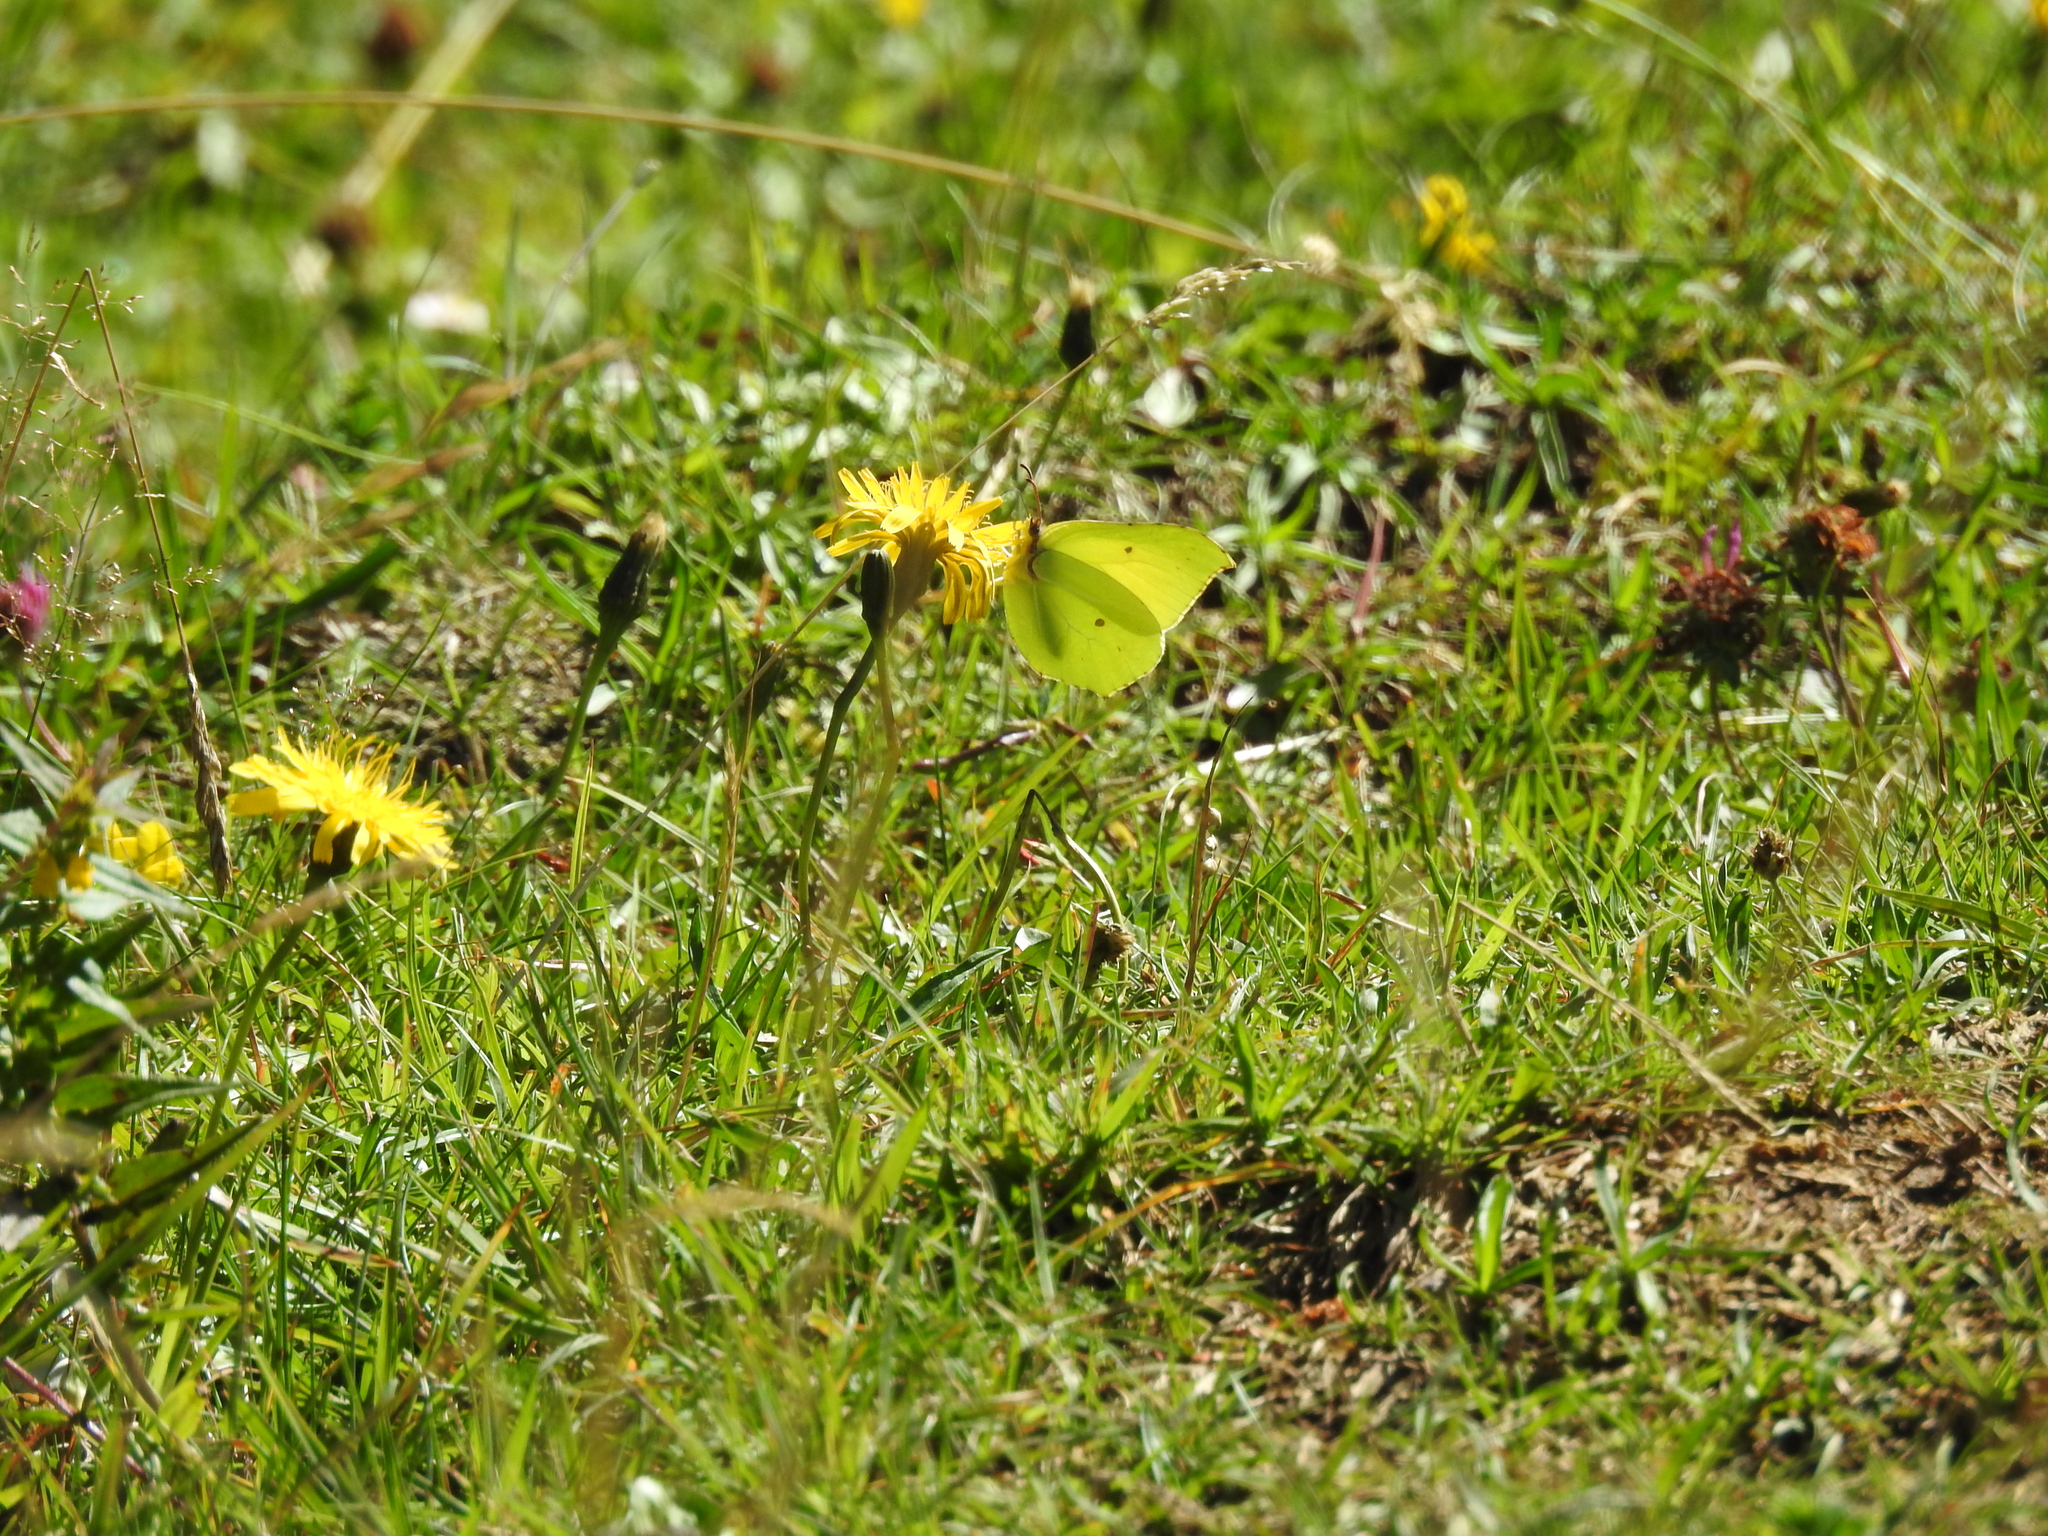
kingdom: Animalia
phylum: Arthropoda
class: Insecta
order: Lepidoptera
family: Pieridae
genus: Gonepteryx
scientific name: Gonepteryx rhamni
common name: Brimstone
